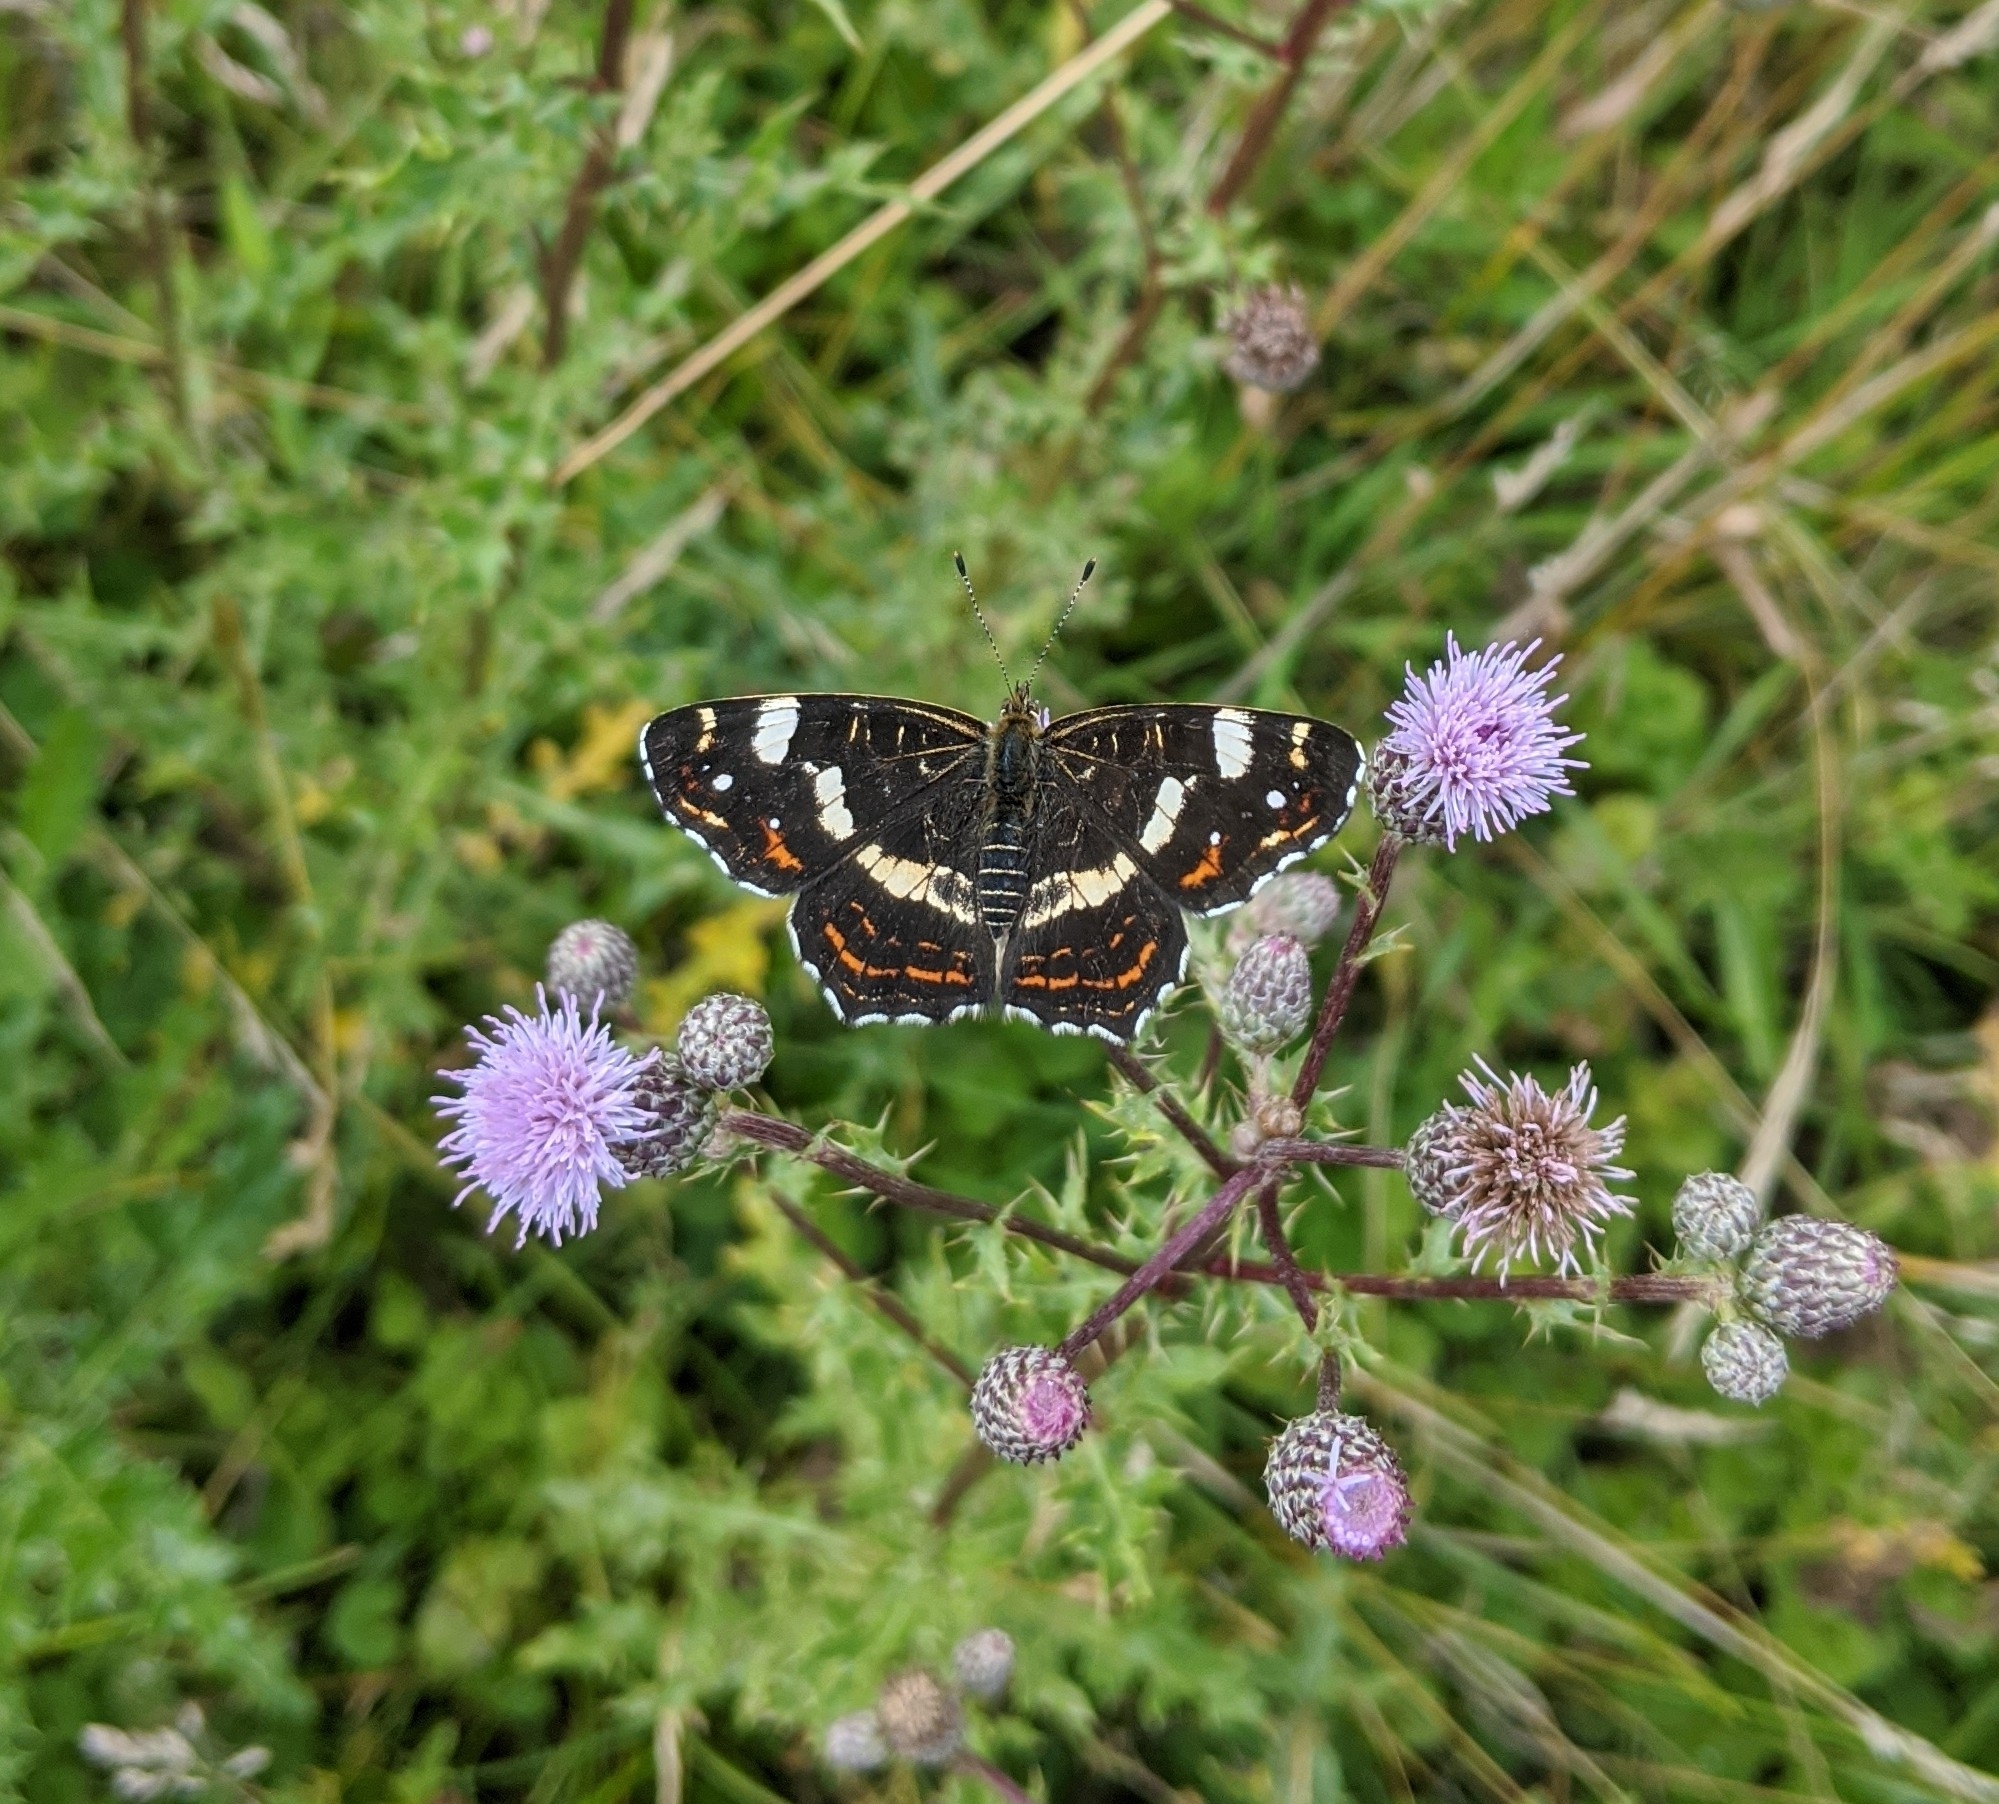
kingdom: Animalia
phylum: Arthropoda
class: Insecta
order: Lepidoptera
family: Nymphalidae
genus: Araschnia
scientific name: Araschnia levana
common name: Map butterfly
